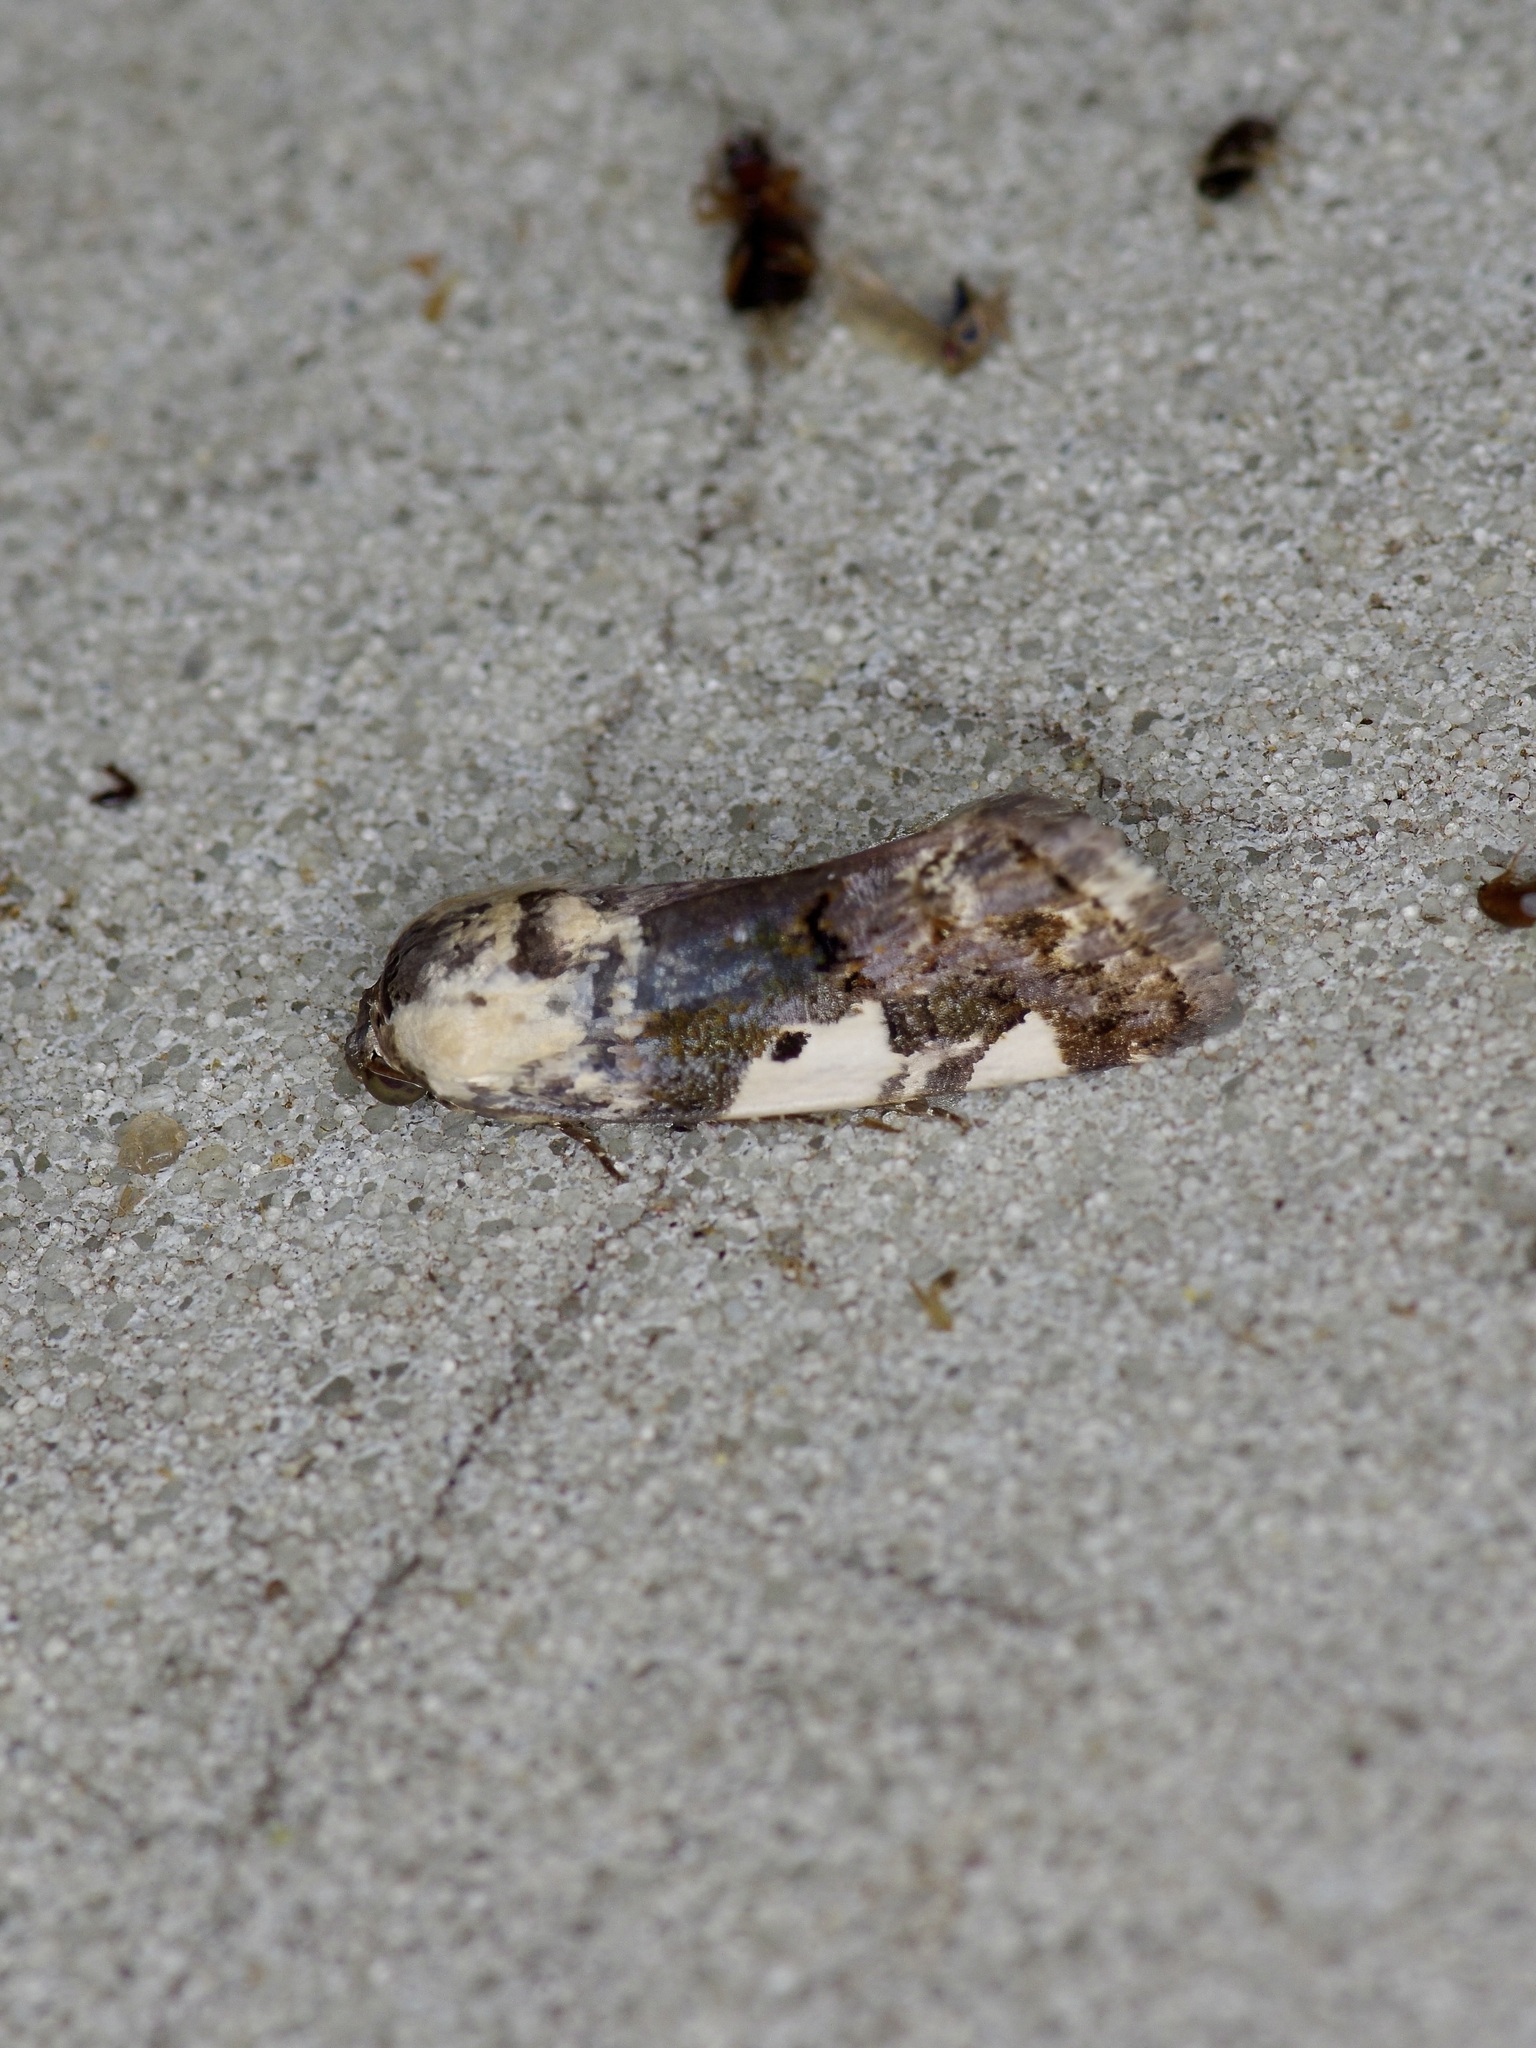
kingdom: Animalia
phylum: Arthropoda
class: Insecta
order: Lepidoptera
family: Noctuidae
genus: Acontia
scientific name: Acontia aprica
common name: Nun
